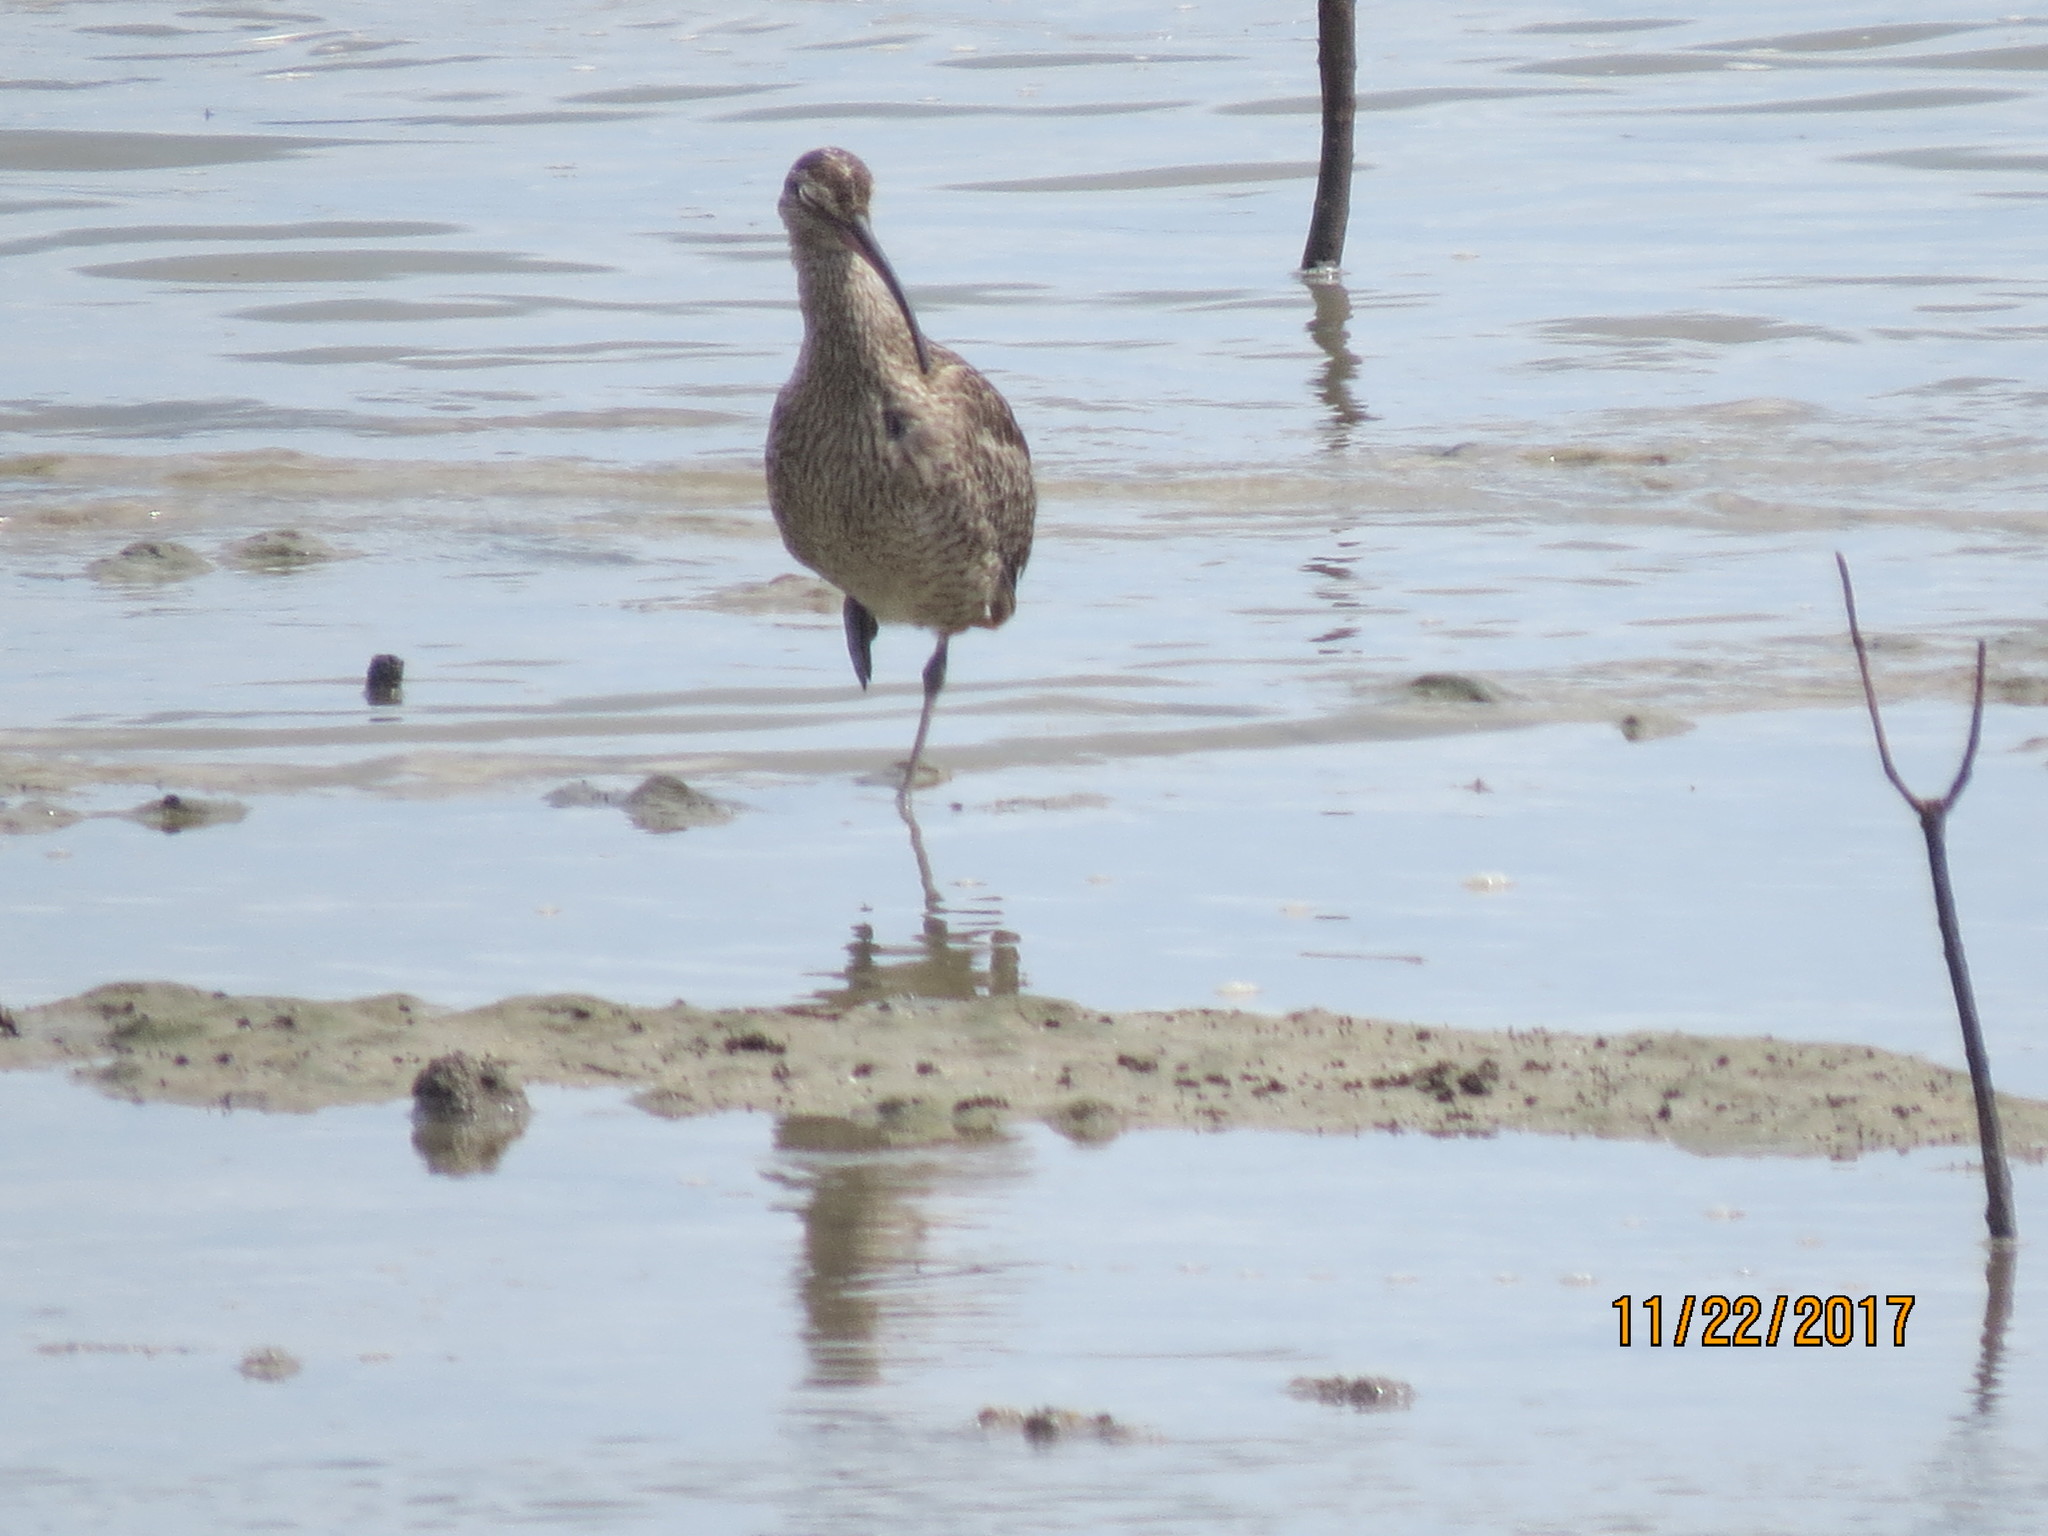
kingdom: Animalia
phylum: Chordata
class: Aves
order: Charadriiformes
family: Scolopacidae
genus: Numenius
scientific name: Numenius phaeopus
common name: Whimbrel
